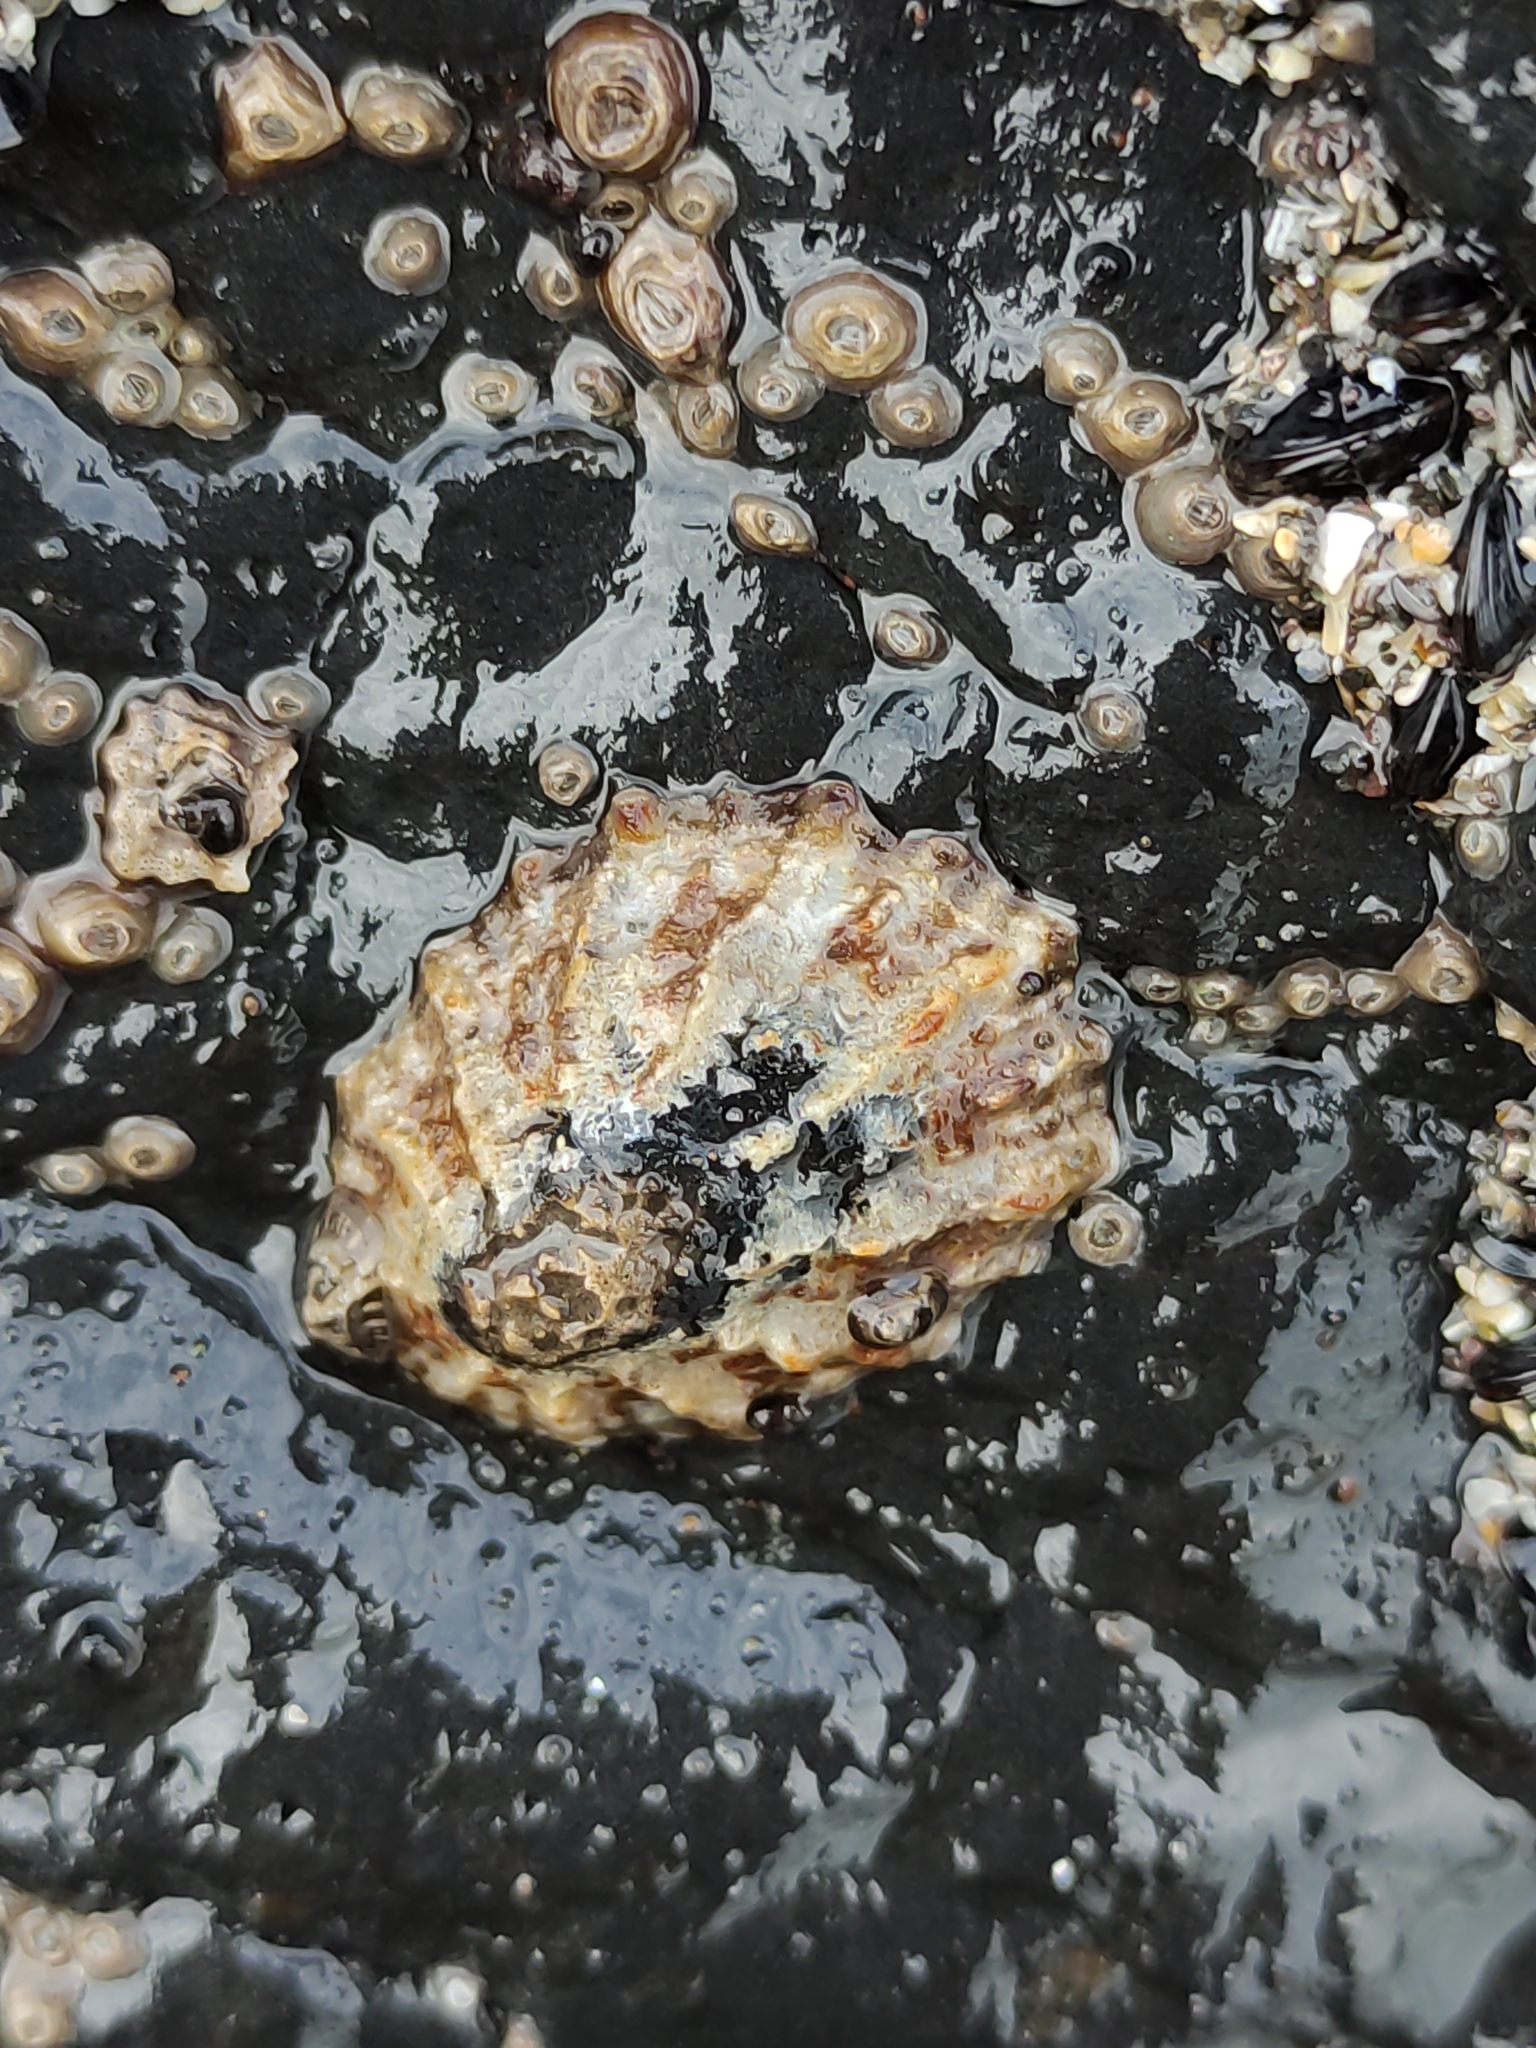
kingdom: Animalia
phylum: Mollusca
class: Gastropoda
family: Nacellidae
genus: Cellana
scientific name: Cellana ornata
